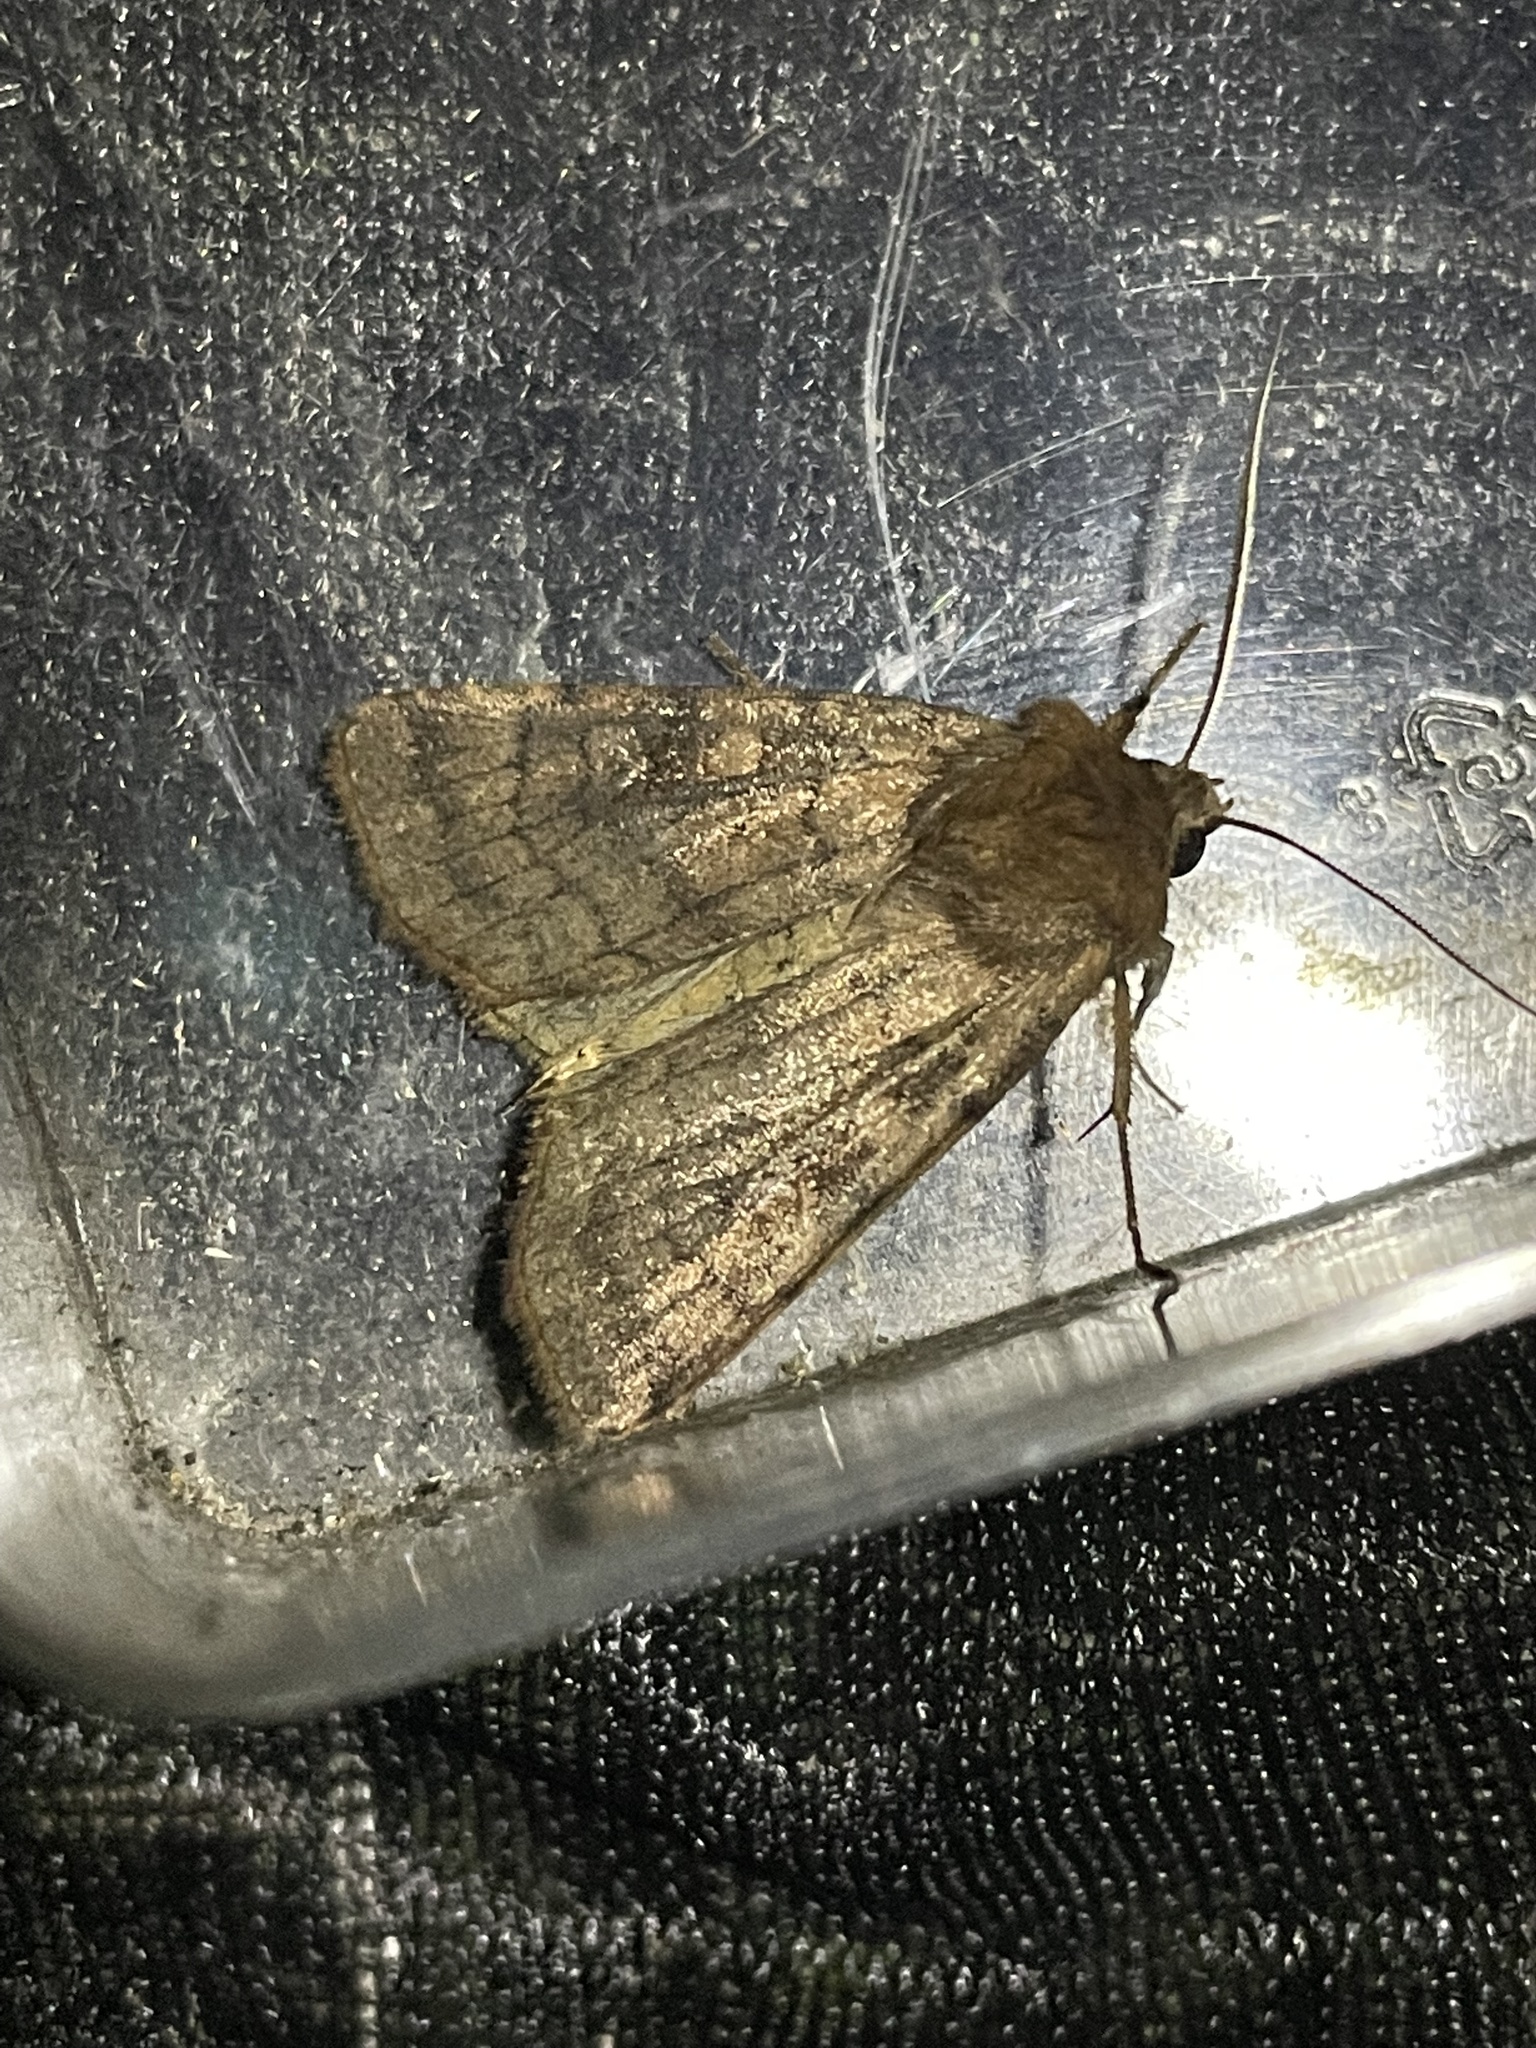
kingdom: Animalia
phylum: Arthropoda
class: Insecta
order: Lepidoptera
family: Noctuidae
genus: Xestia
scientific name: Xestia sexstrigata
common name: Six-striped rustic
